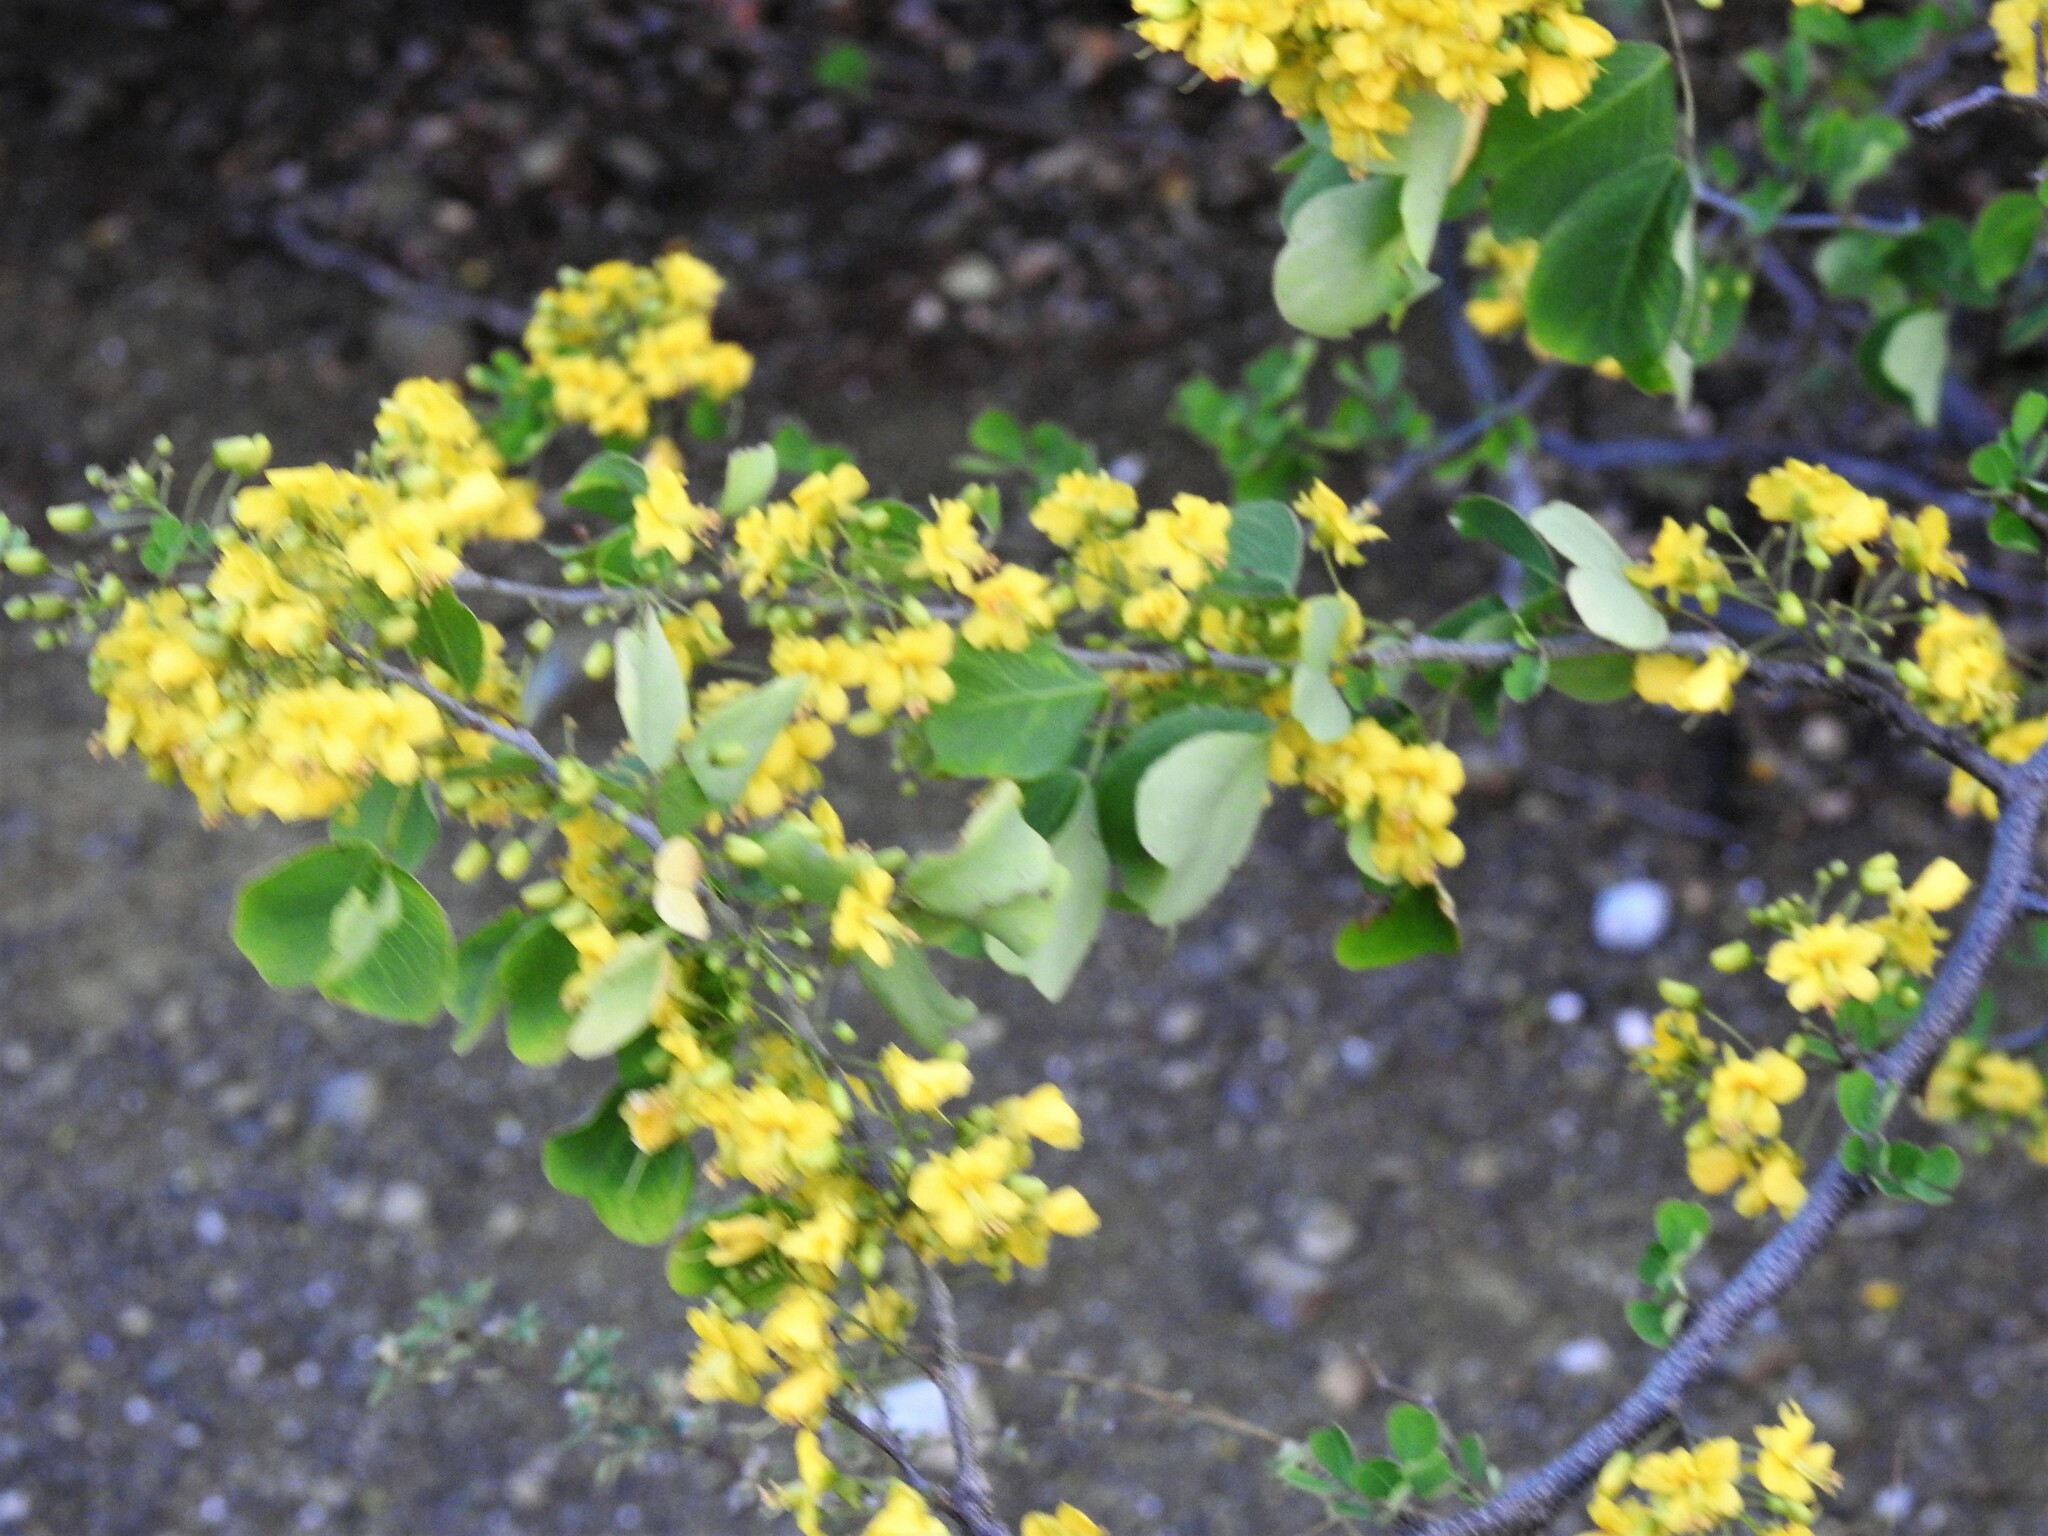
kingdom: Plantae
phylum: Tracheophyta
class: Magnoliopsida
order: Fabales
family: Fabaceae
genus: Haematoxylum
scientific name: Haematoxylum brasiletto
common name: Peachwood
